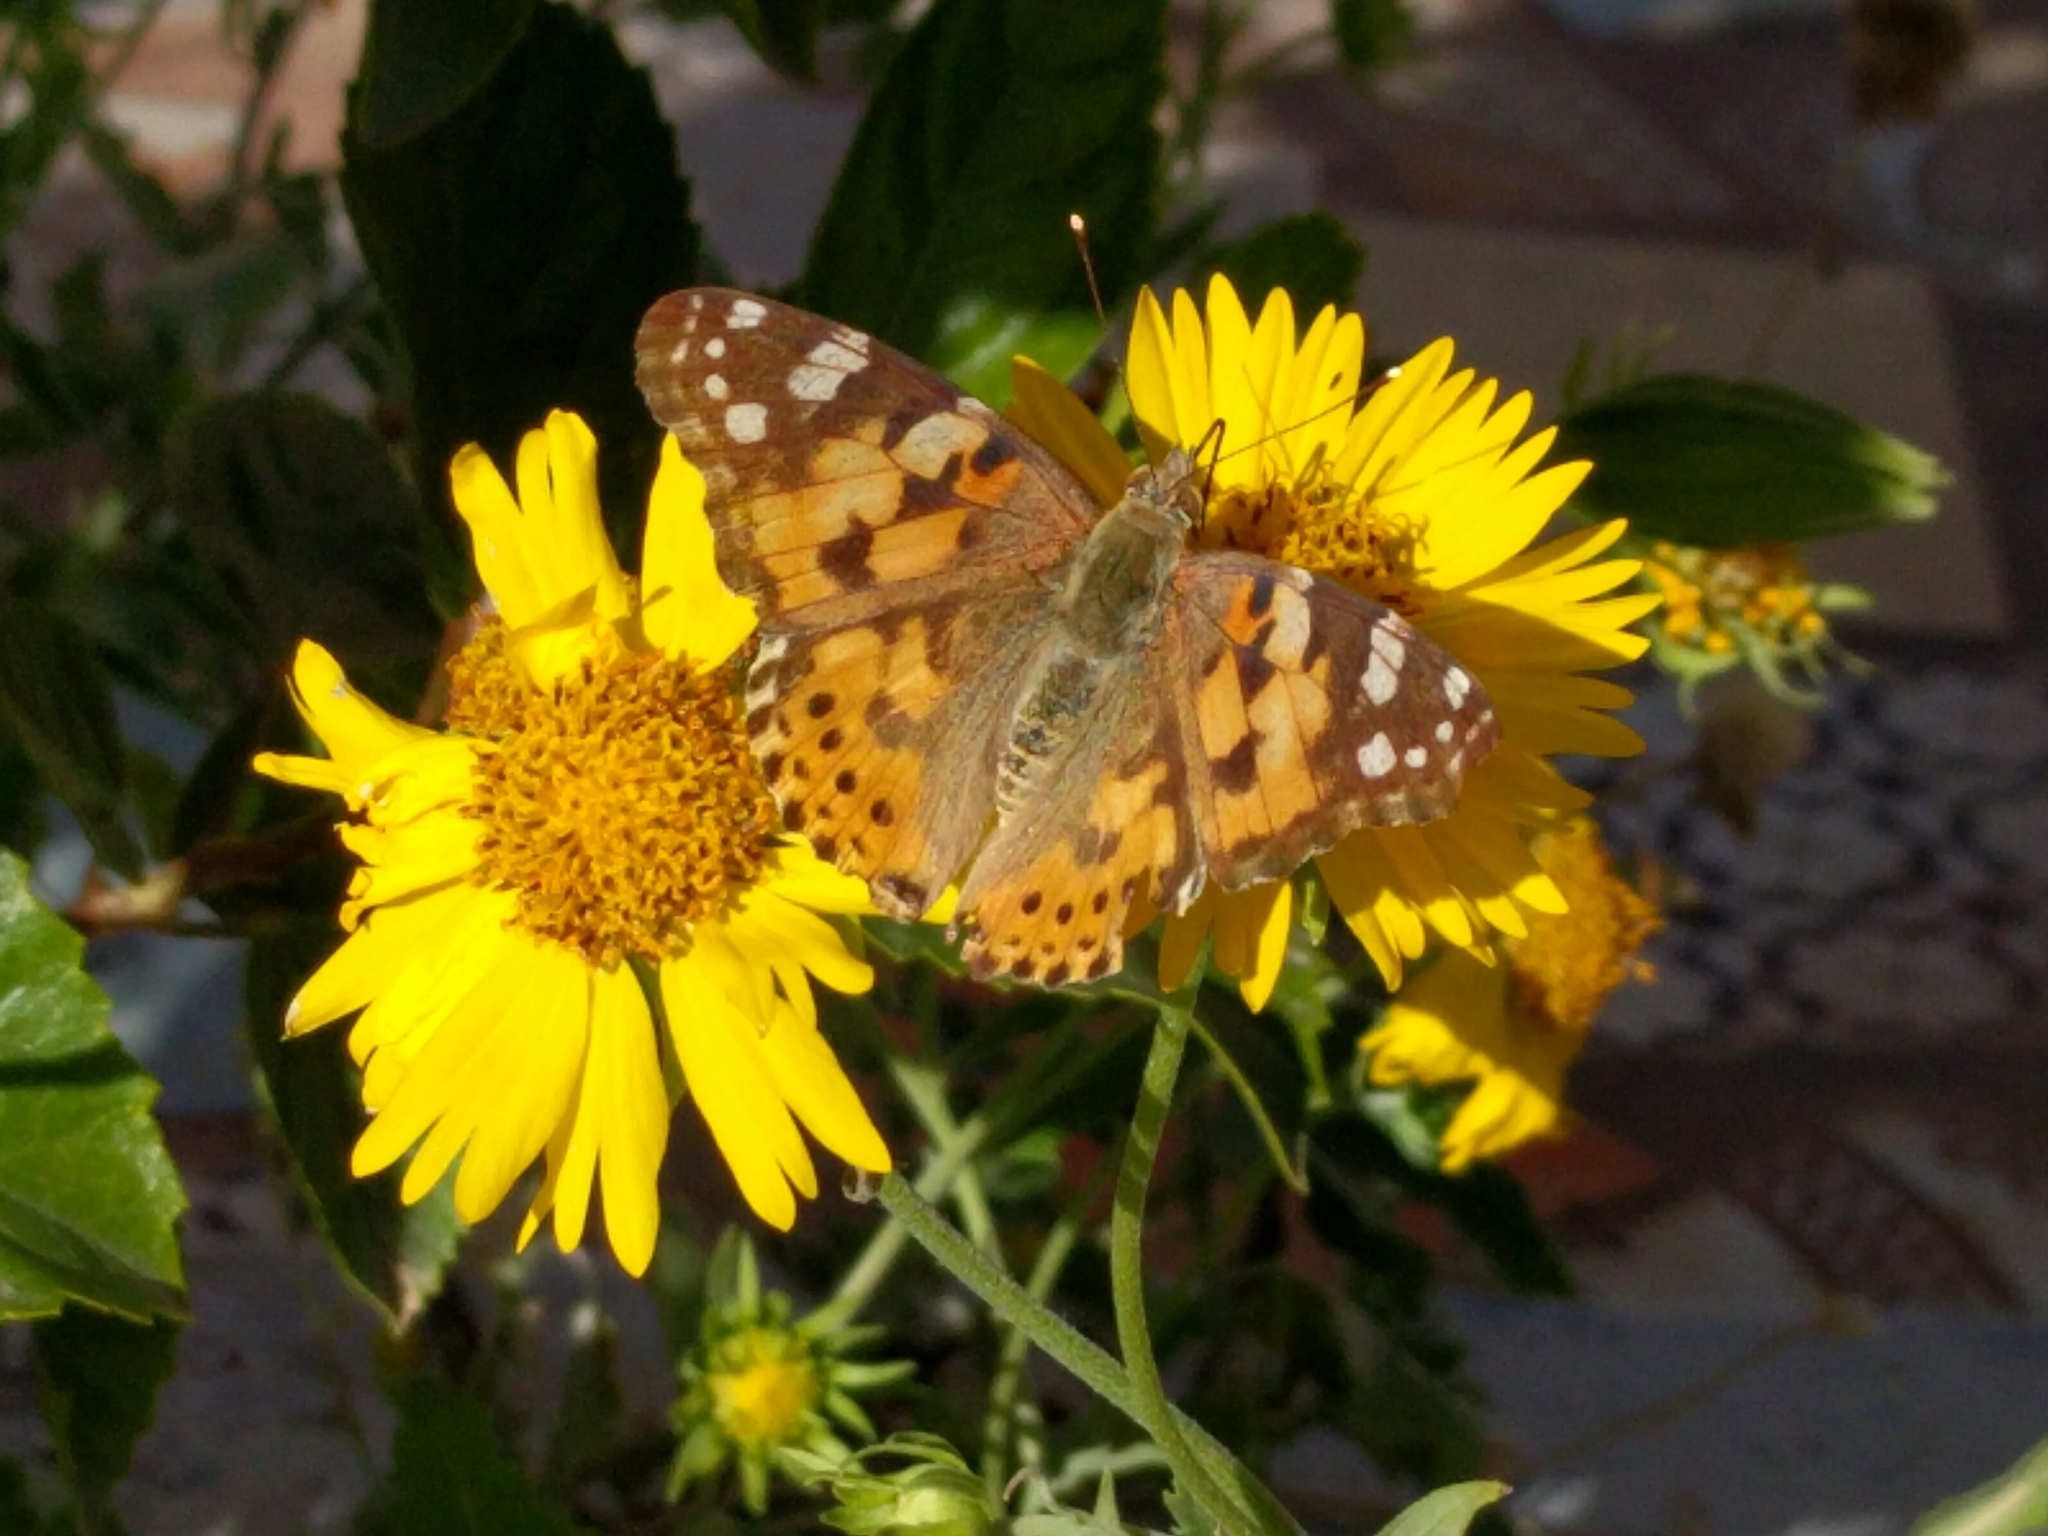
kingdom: Animalia
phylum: Arthropoda
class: Insecta
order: Lepidoptera
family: Nymphalidae
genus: Vanessa
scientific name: Vanessa cardui
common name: Painted lady
